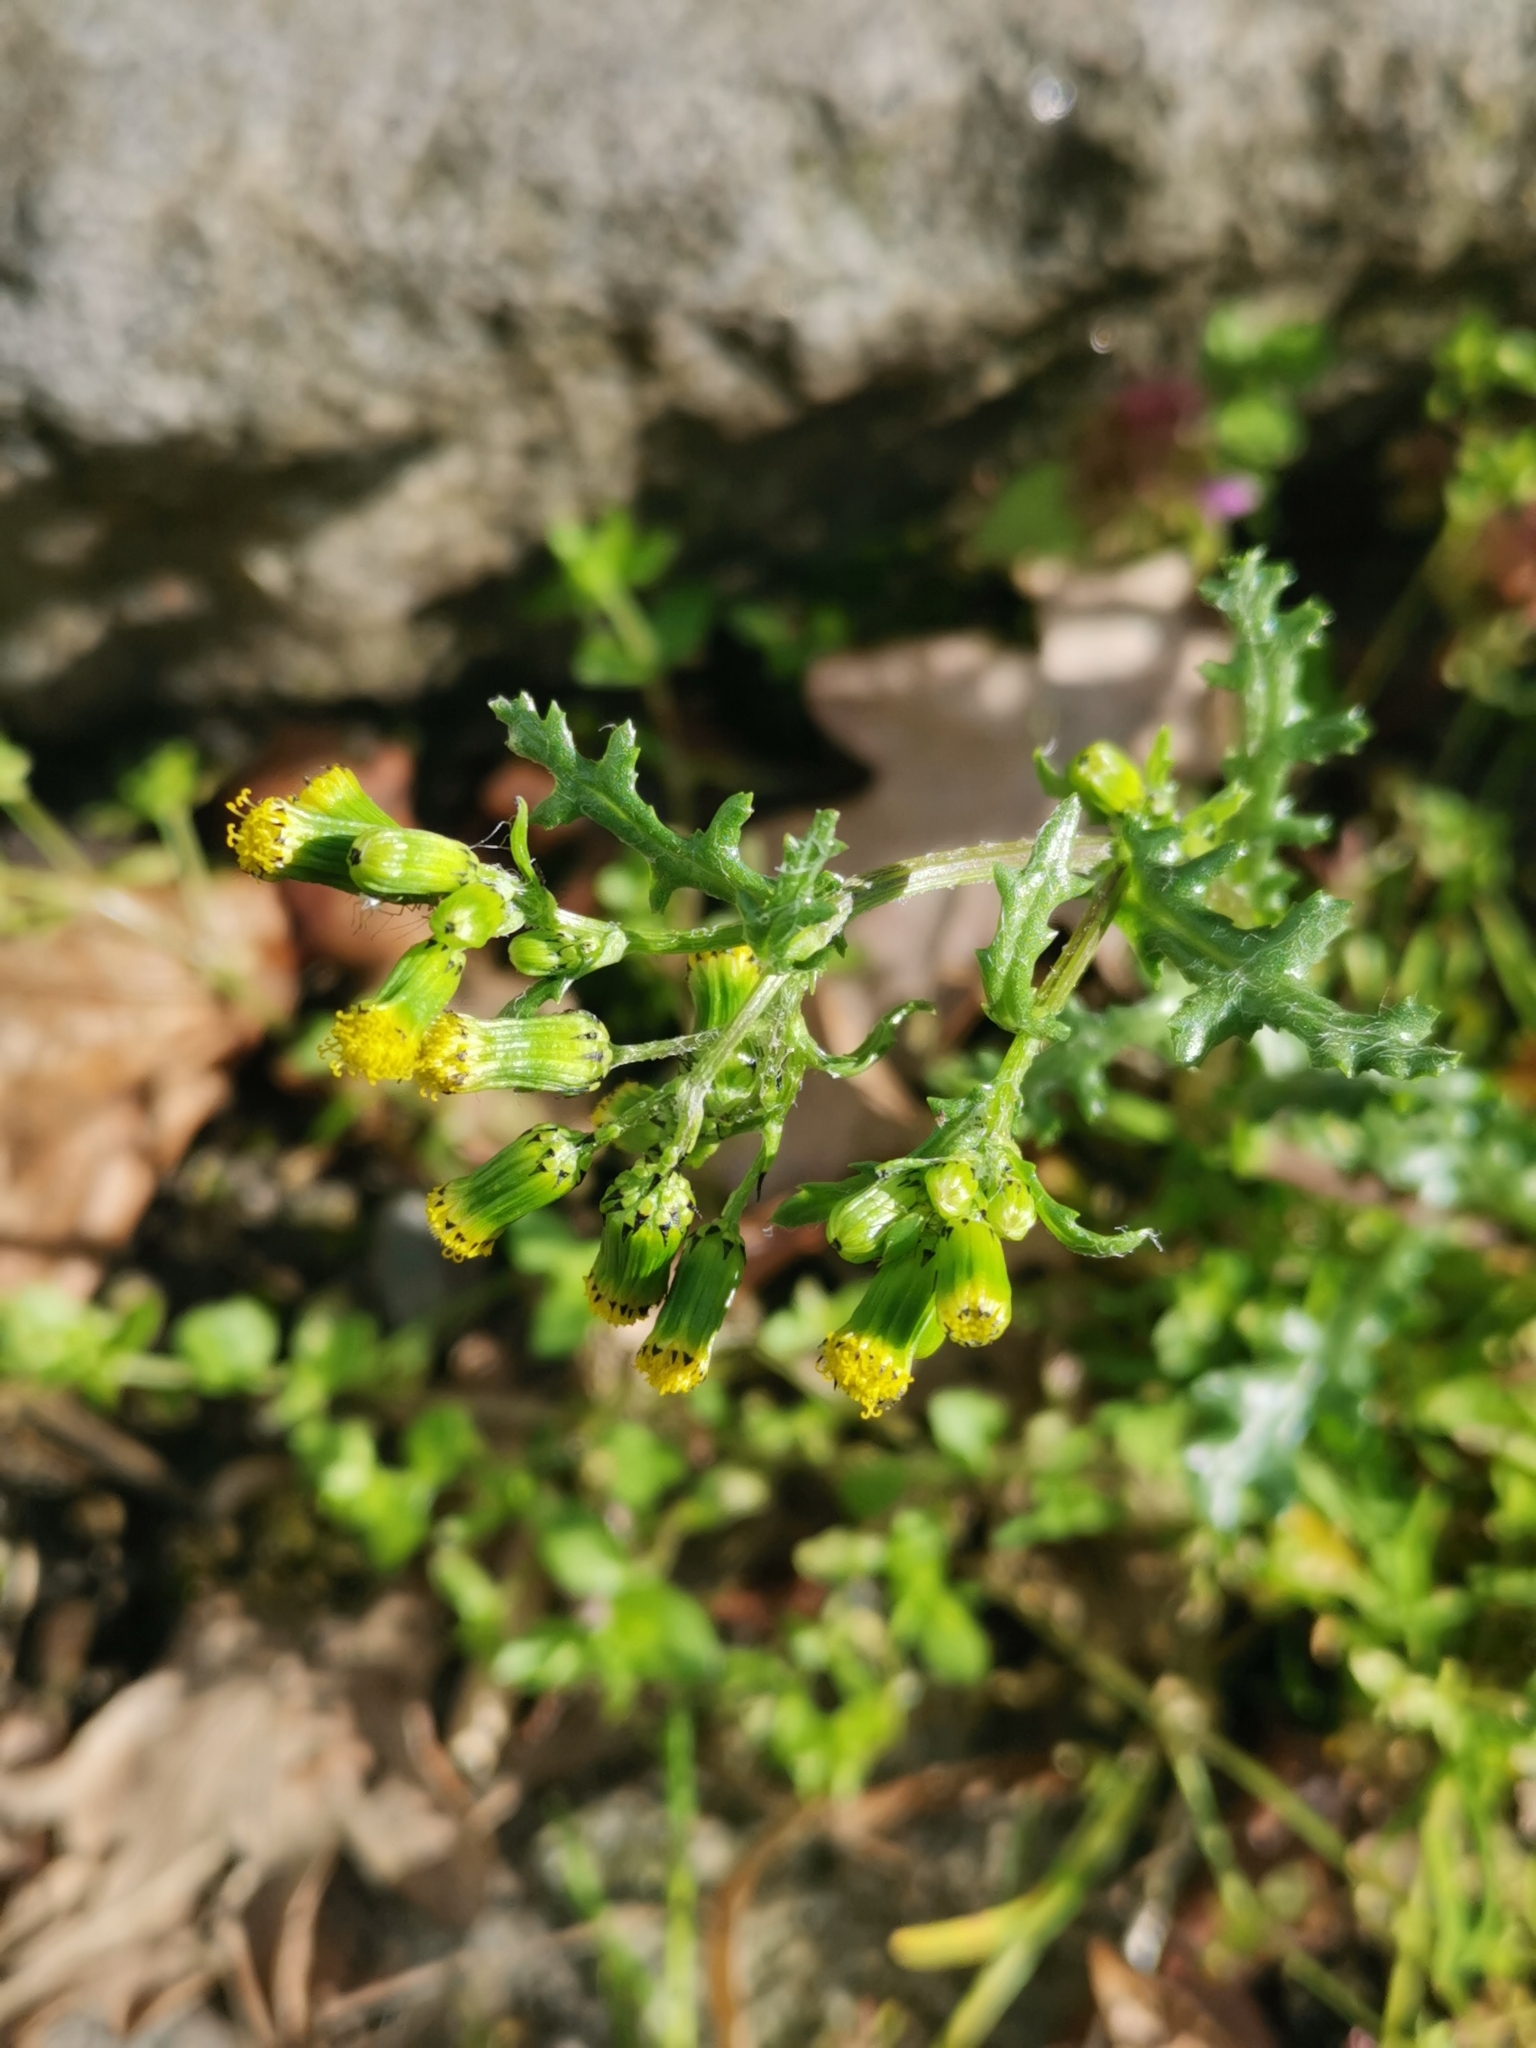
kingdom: Plantae
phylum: Tracheophyta
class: Magnoliopsida
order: Asterales
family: Asteraceae
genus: Senecio
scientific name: Senecio vulgaris
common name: Old-man-in-the-spring
